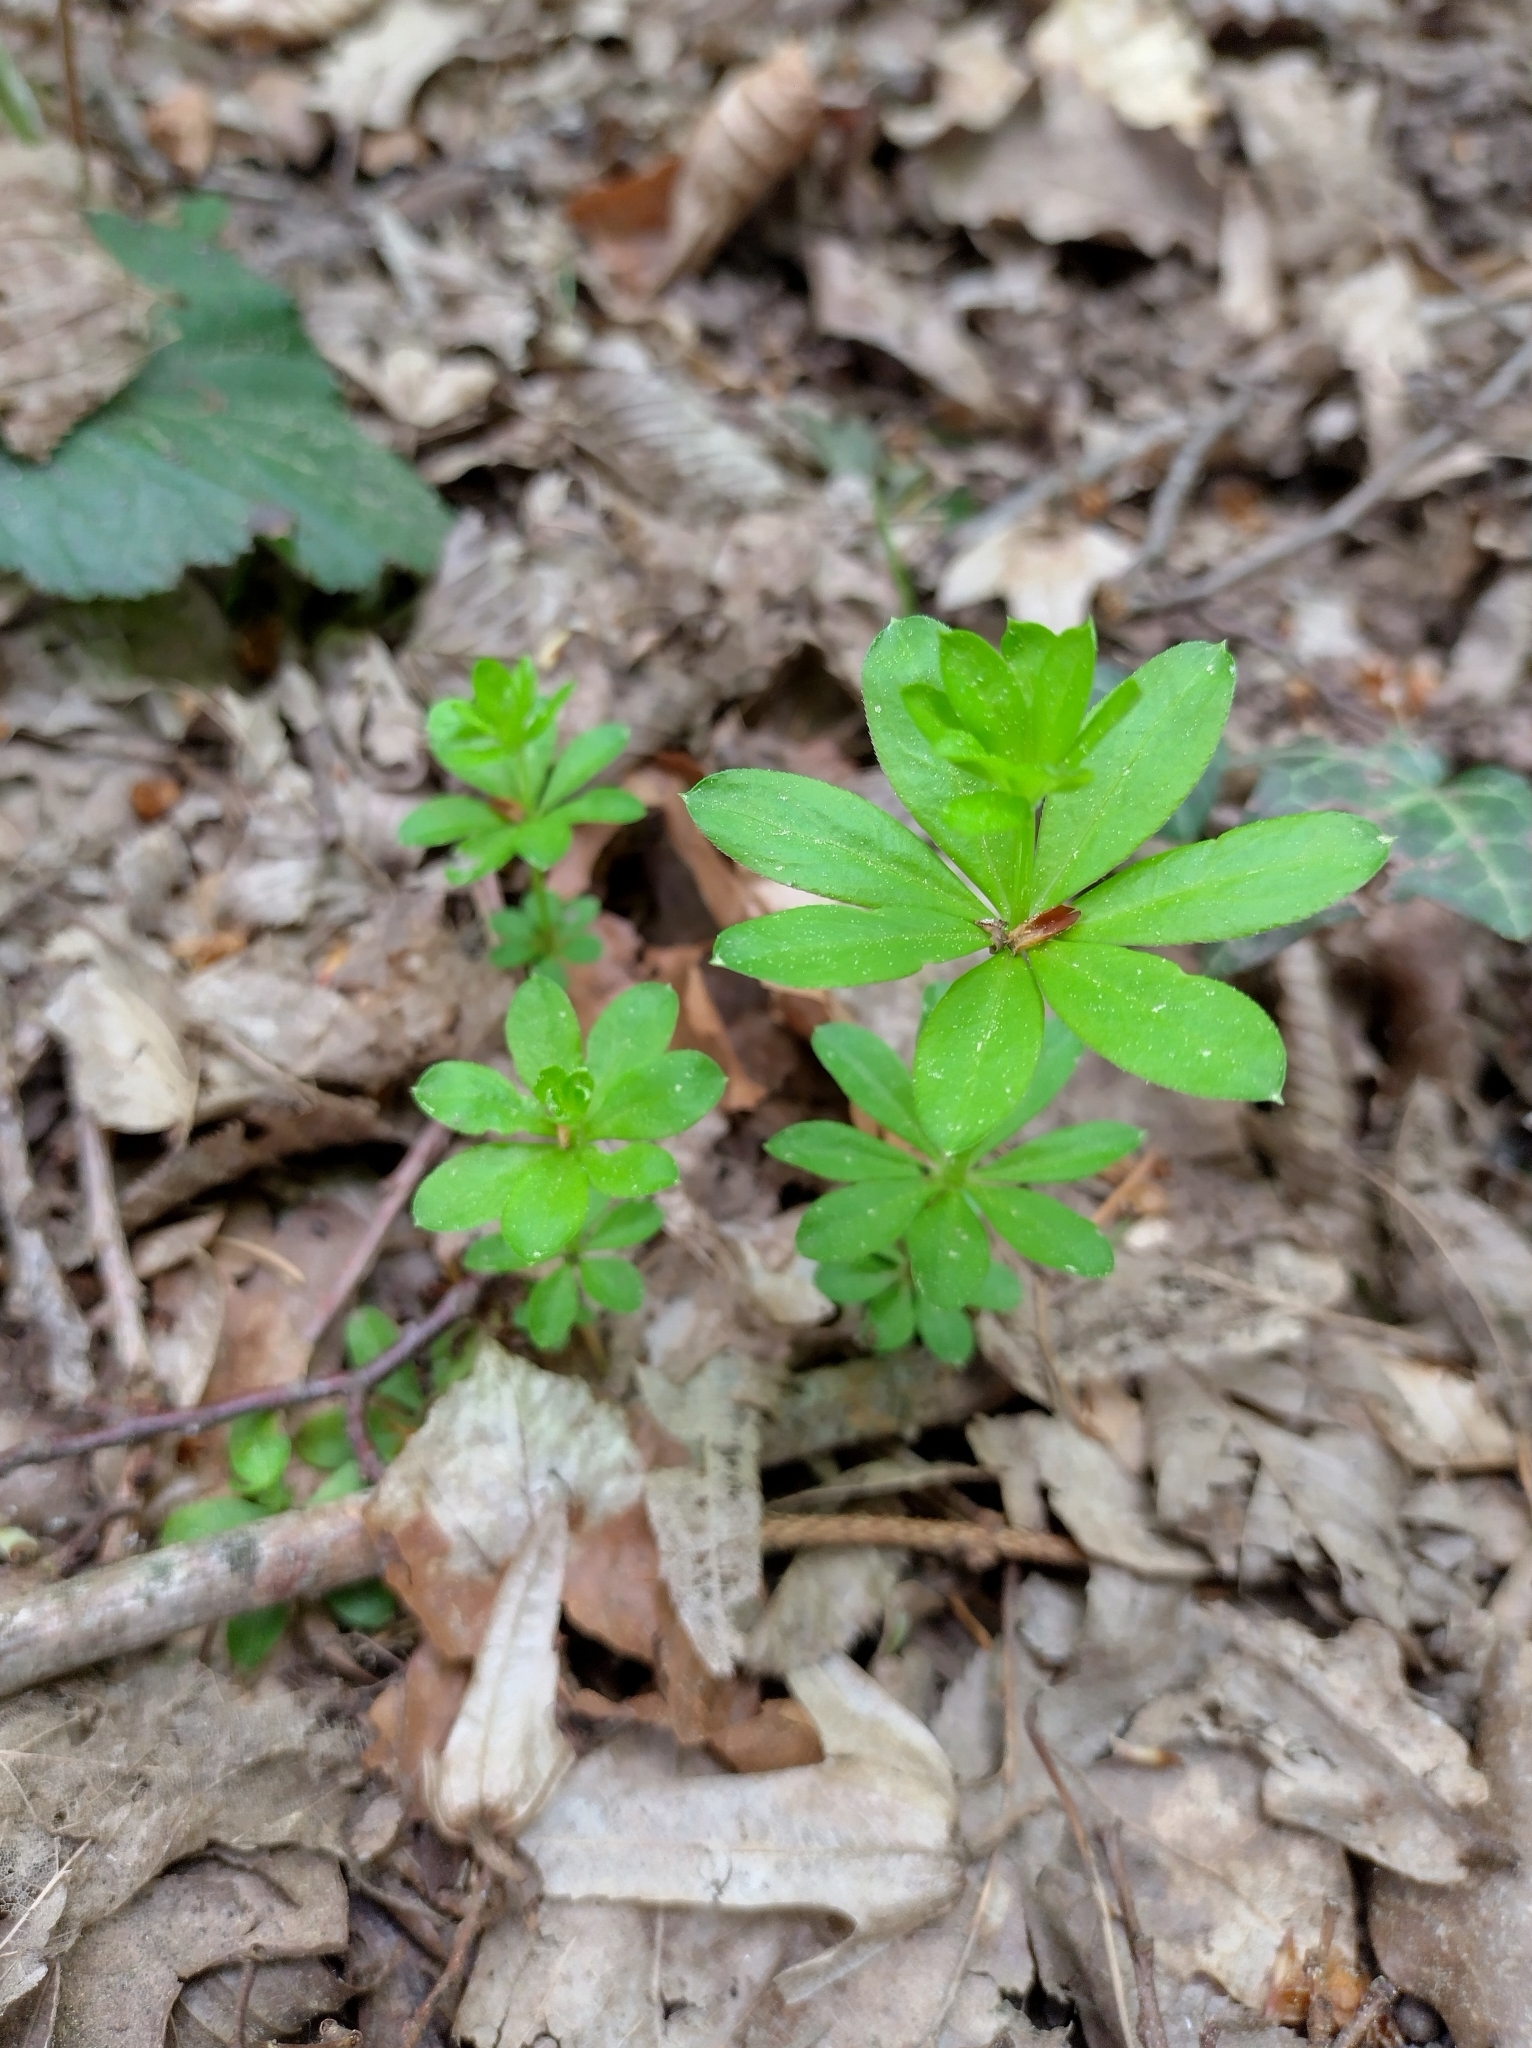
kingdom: Plantae
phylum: Tracheophyta
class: Magnoliopsida
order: Gentianales
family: Rubiaceae
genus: Galium
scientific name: Galium odoratum
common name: Sweet woodruff
